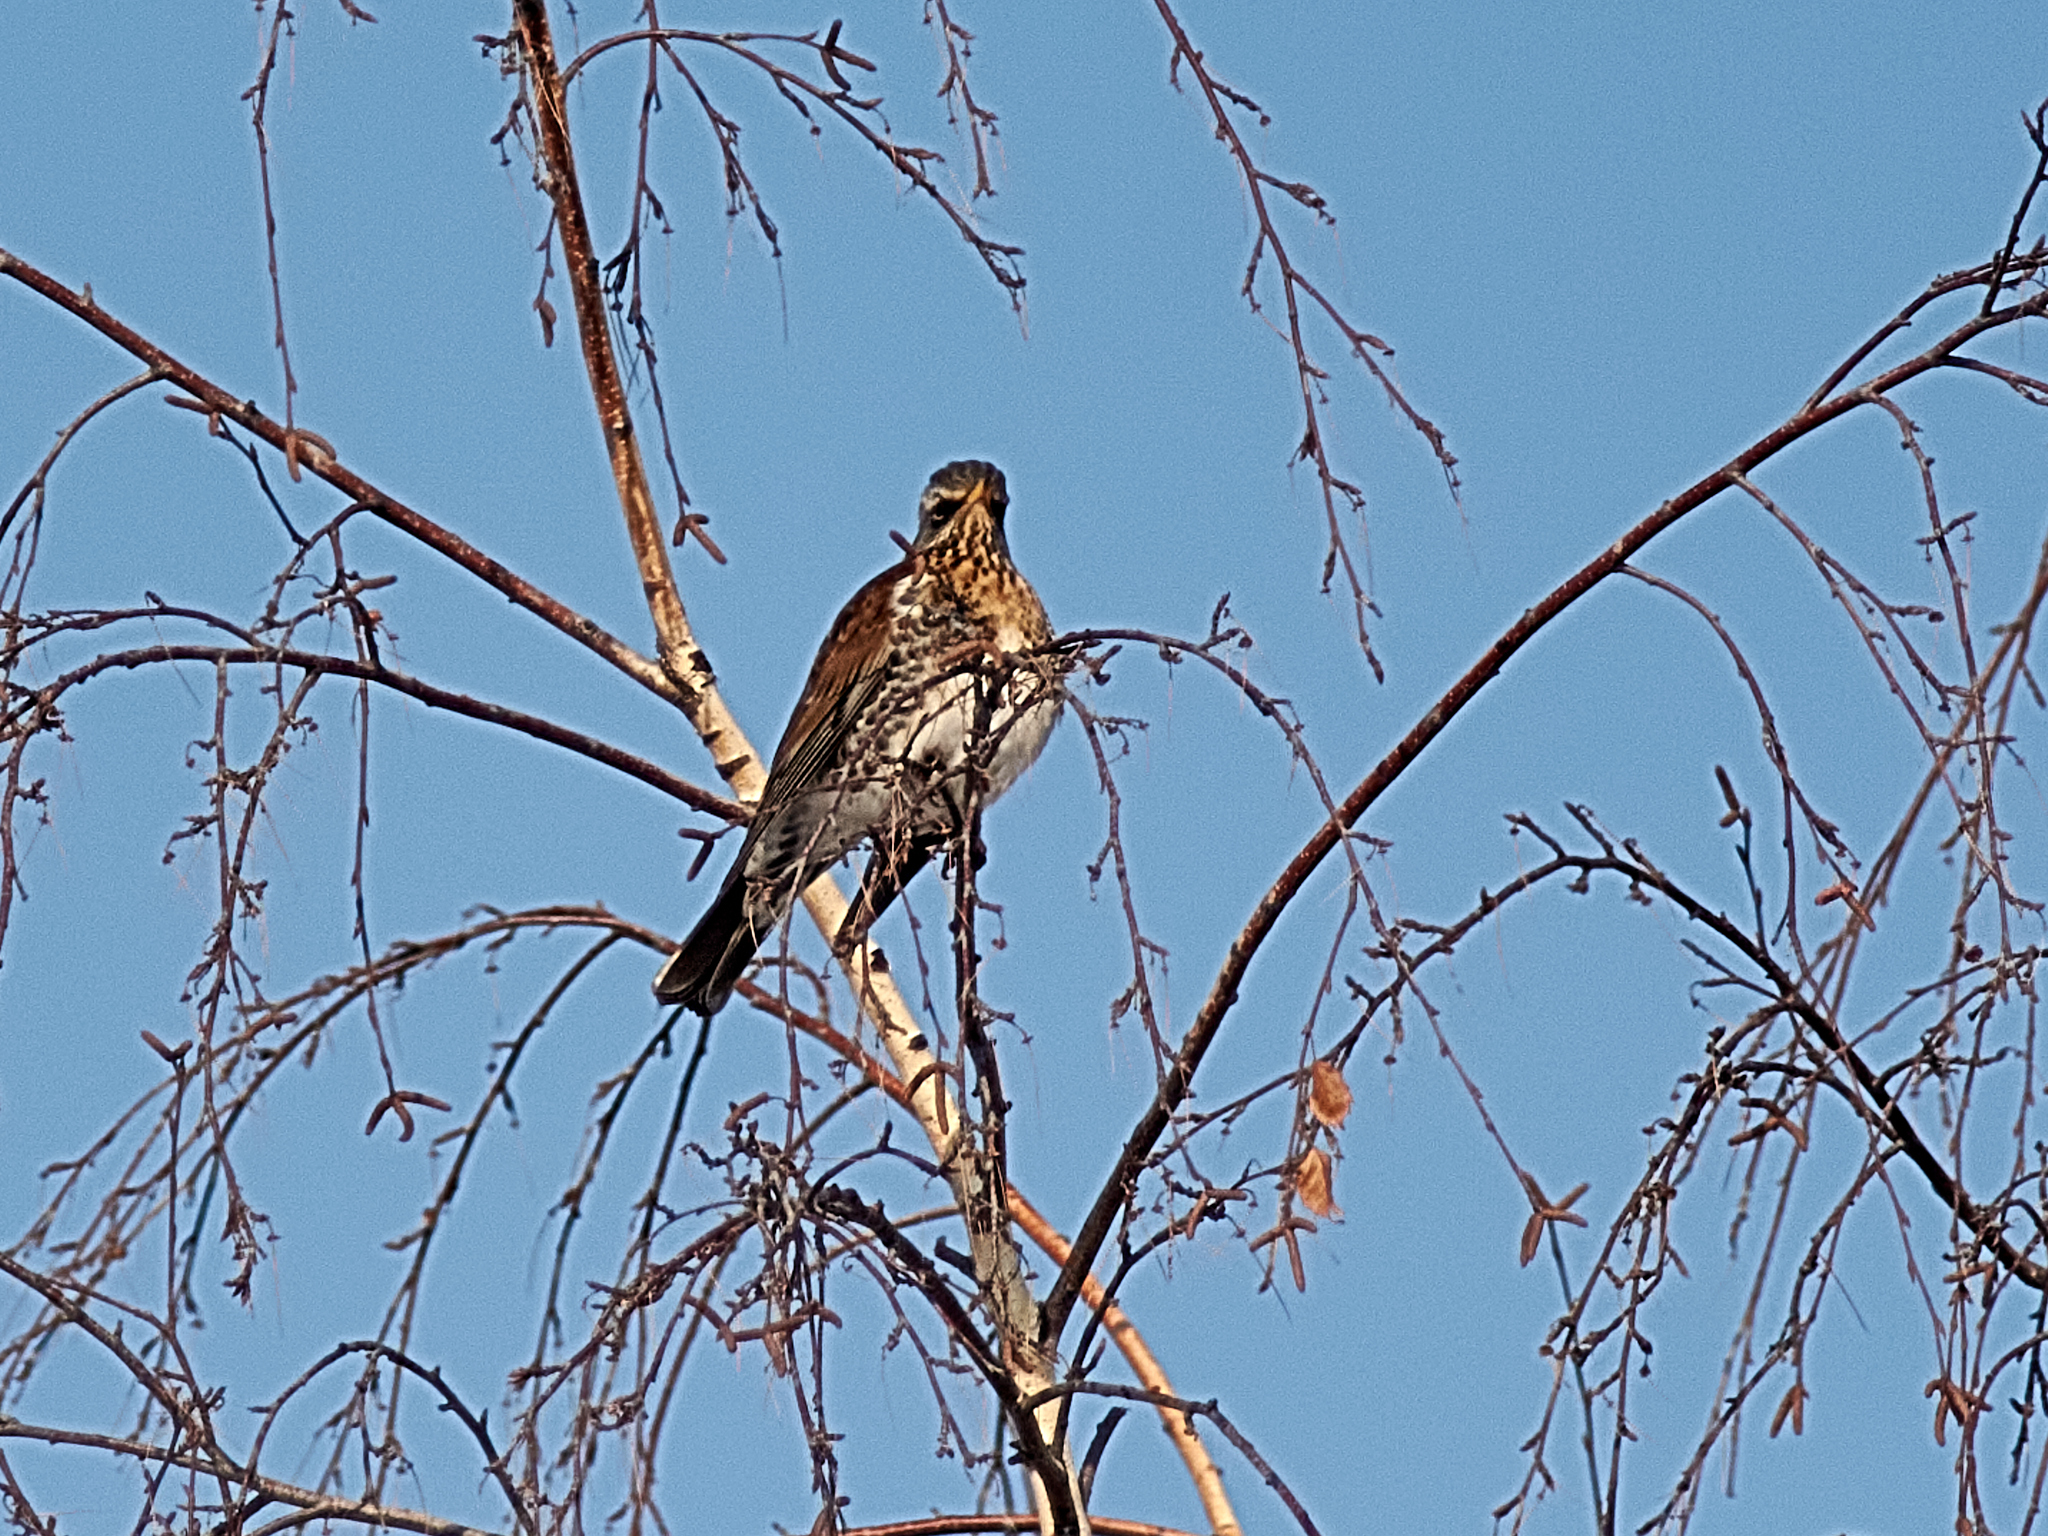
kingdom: Animalia
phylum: Chordata
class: Aves
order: Passeriformes
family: Turdidae
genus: Turdus
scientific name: Turdus pilaris
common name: Fieldfare
